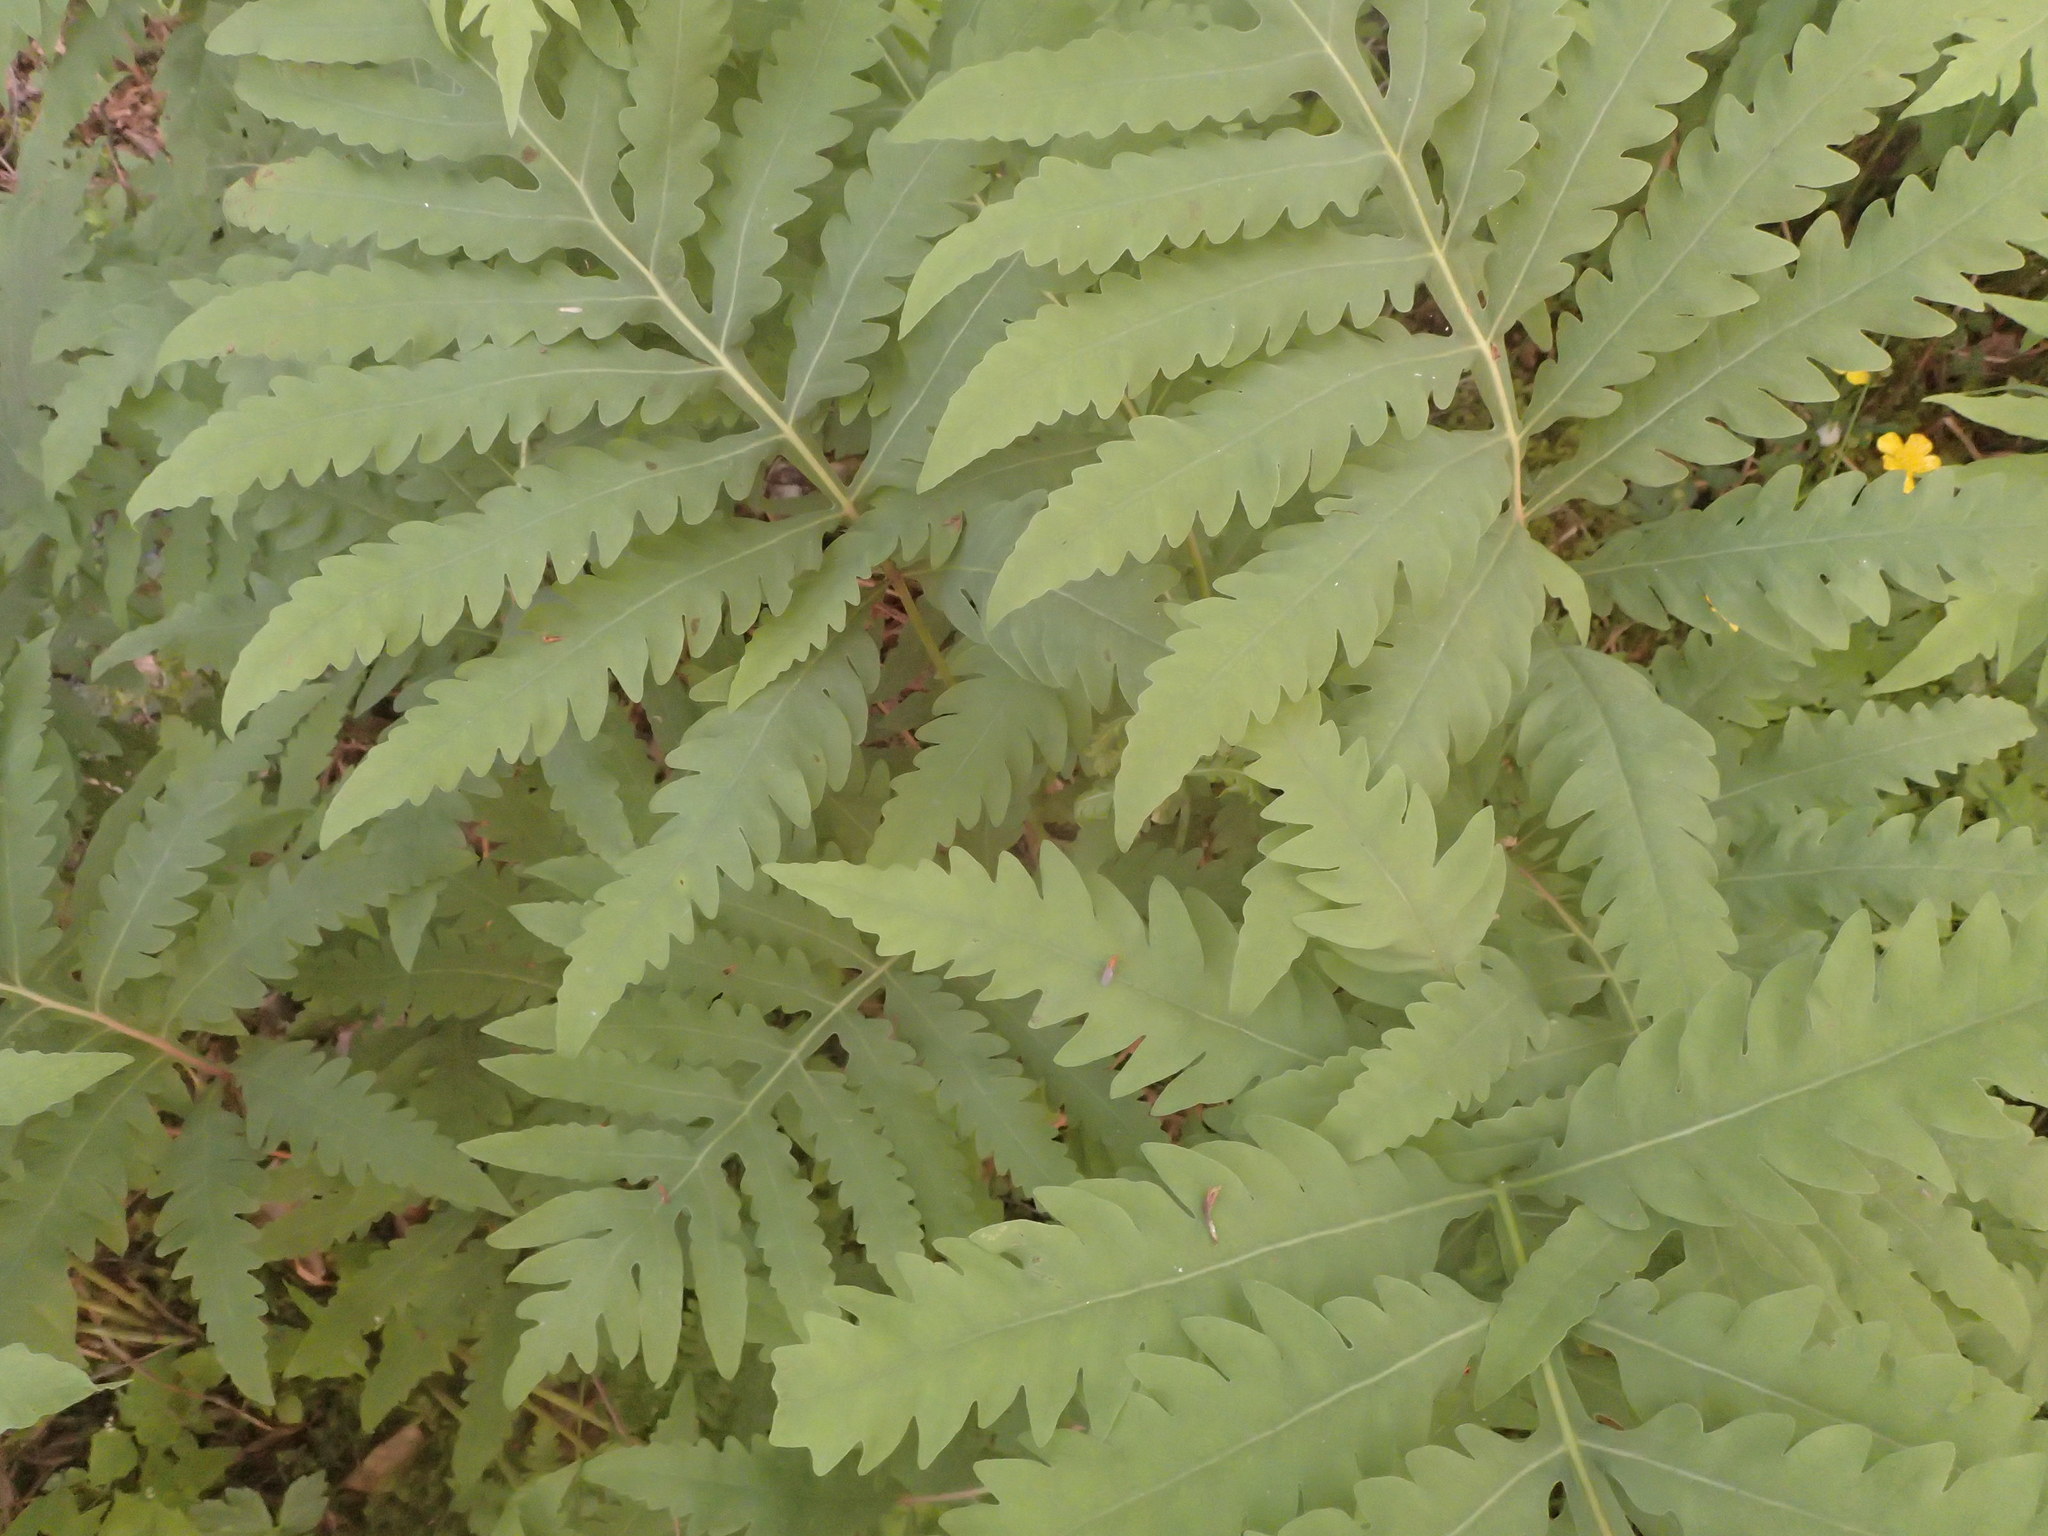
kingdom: Plantae
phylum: Tracheophyta
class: Polypodiopsida
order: Polypodiales
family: Onocleaceae
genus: Onoclea
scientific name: Onoclea sensibilis
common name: Sensitive fern
